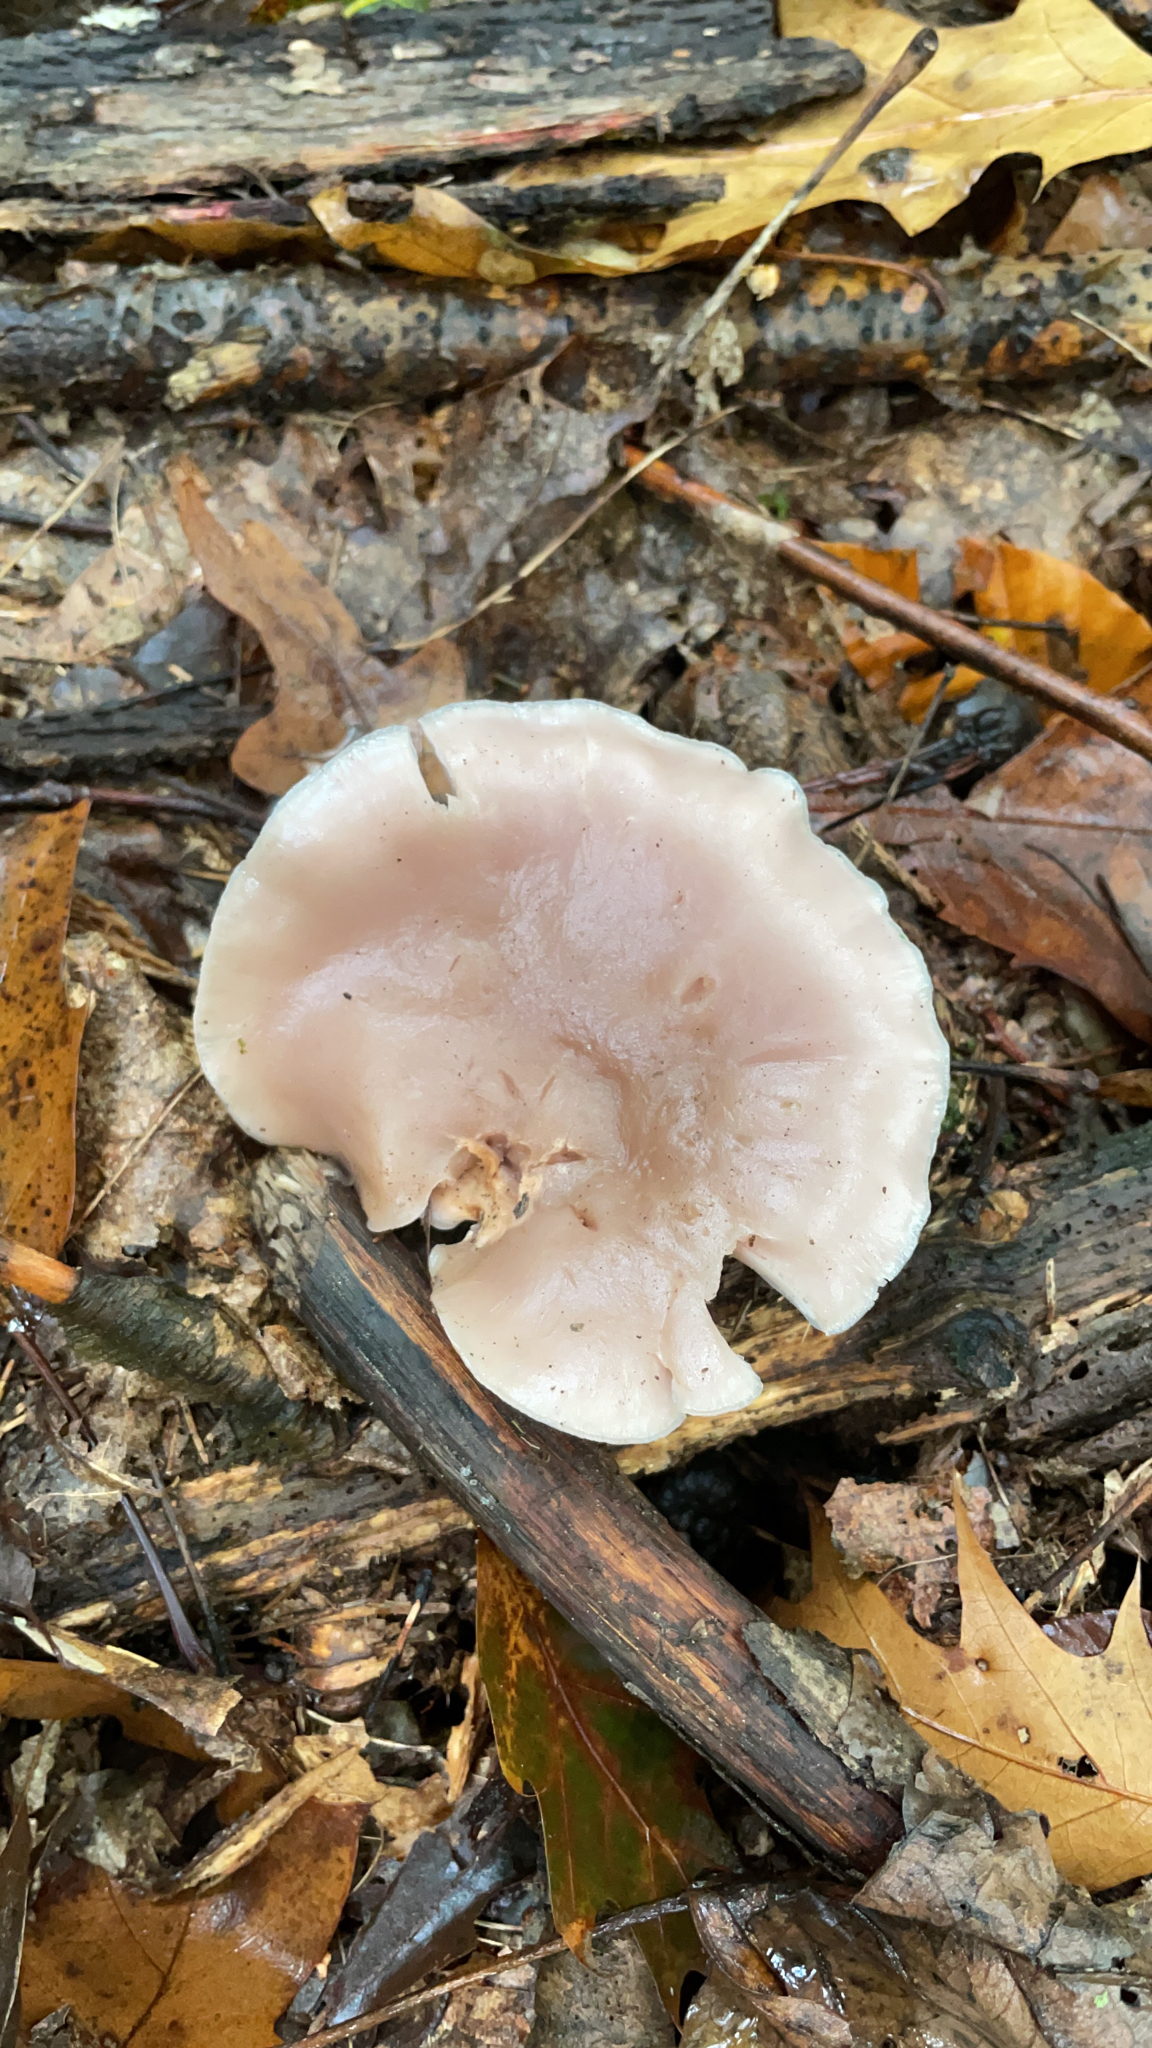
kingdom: Fungi
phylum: Basidiomycota
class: Agaricomycetes
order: Agaricales
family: Tricholomataceae
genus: Collybia
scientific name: Collybia
